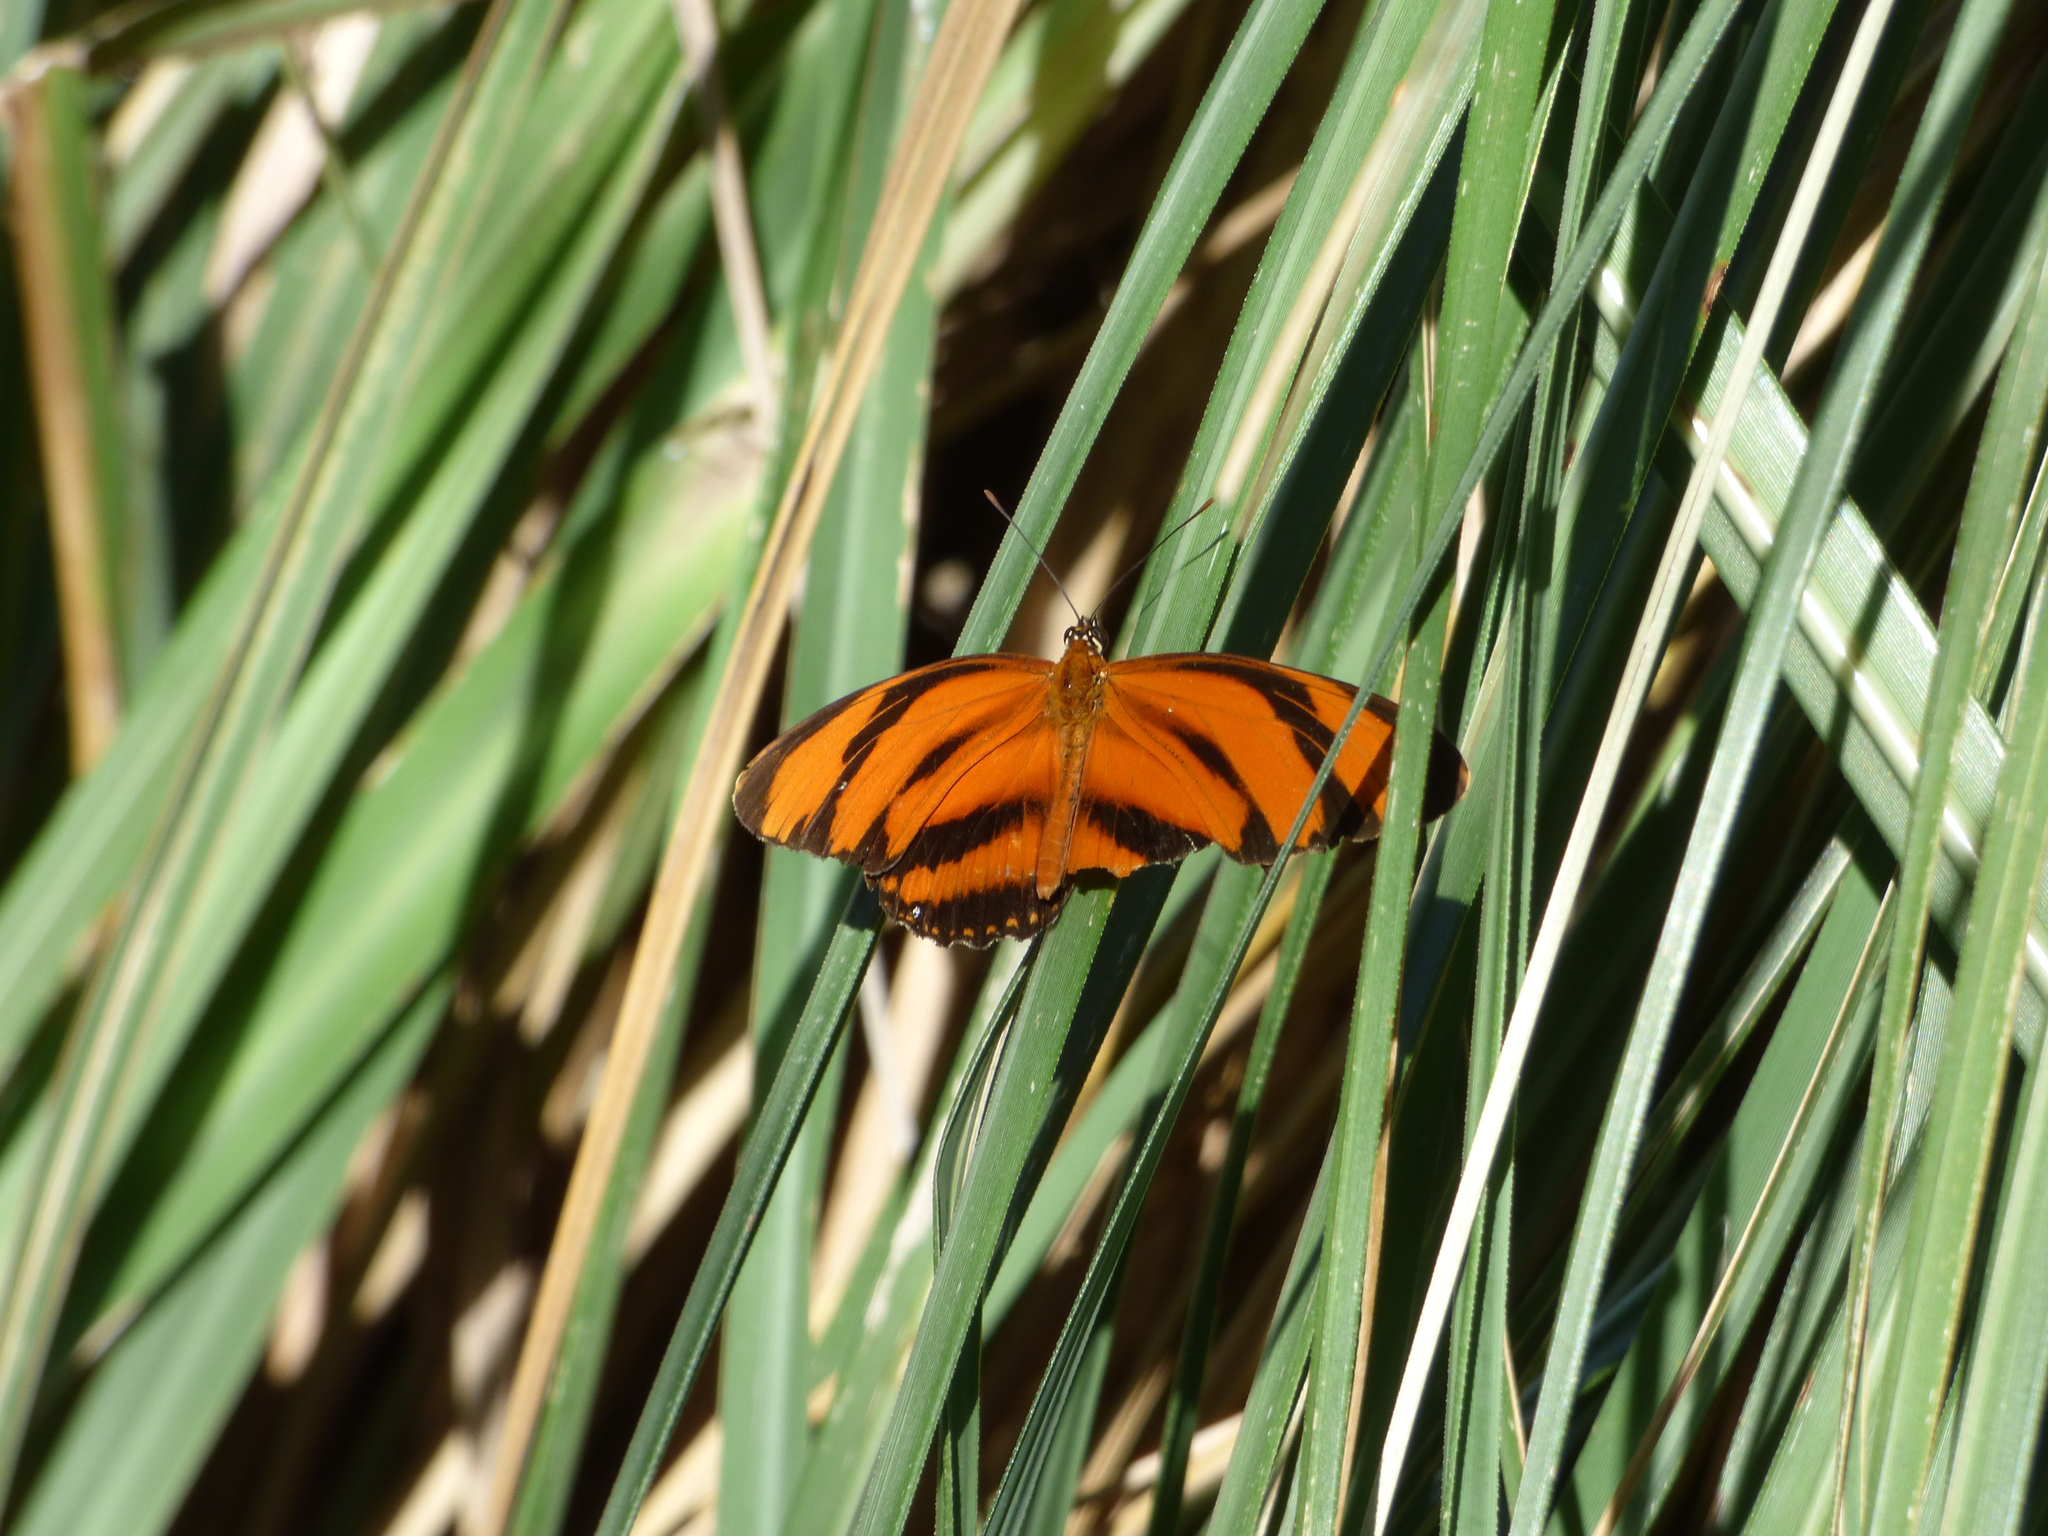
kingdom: Animalia
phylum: Arthropoda
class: Insecta
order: Lepidoptera
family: Nymphalidae
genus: Dryadula
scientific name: Dryadula phaetusa
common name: Banded orange heliconian
